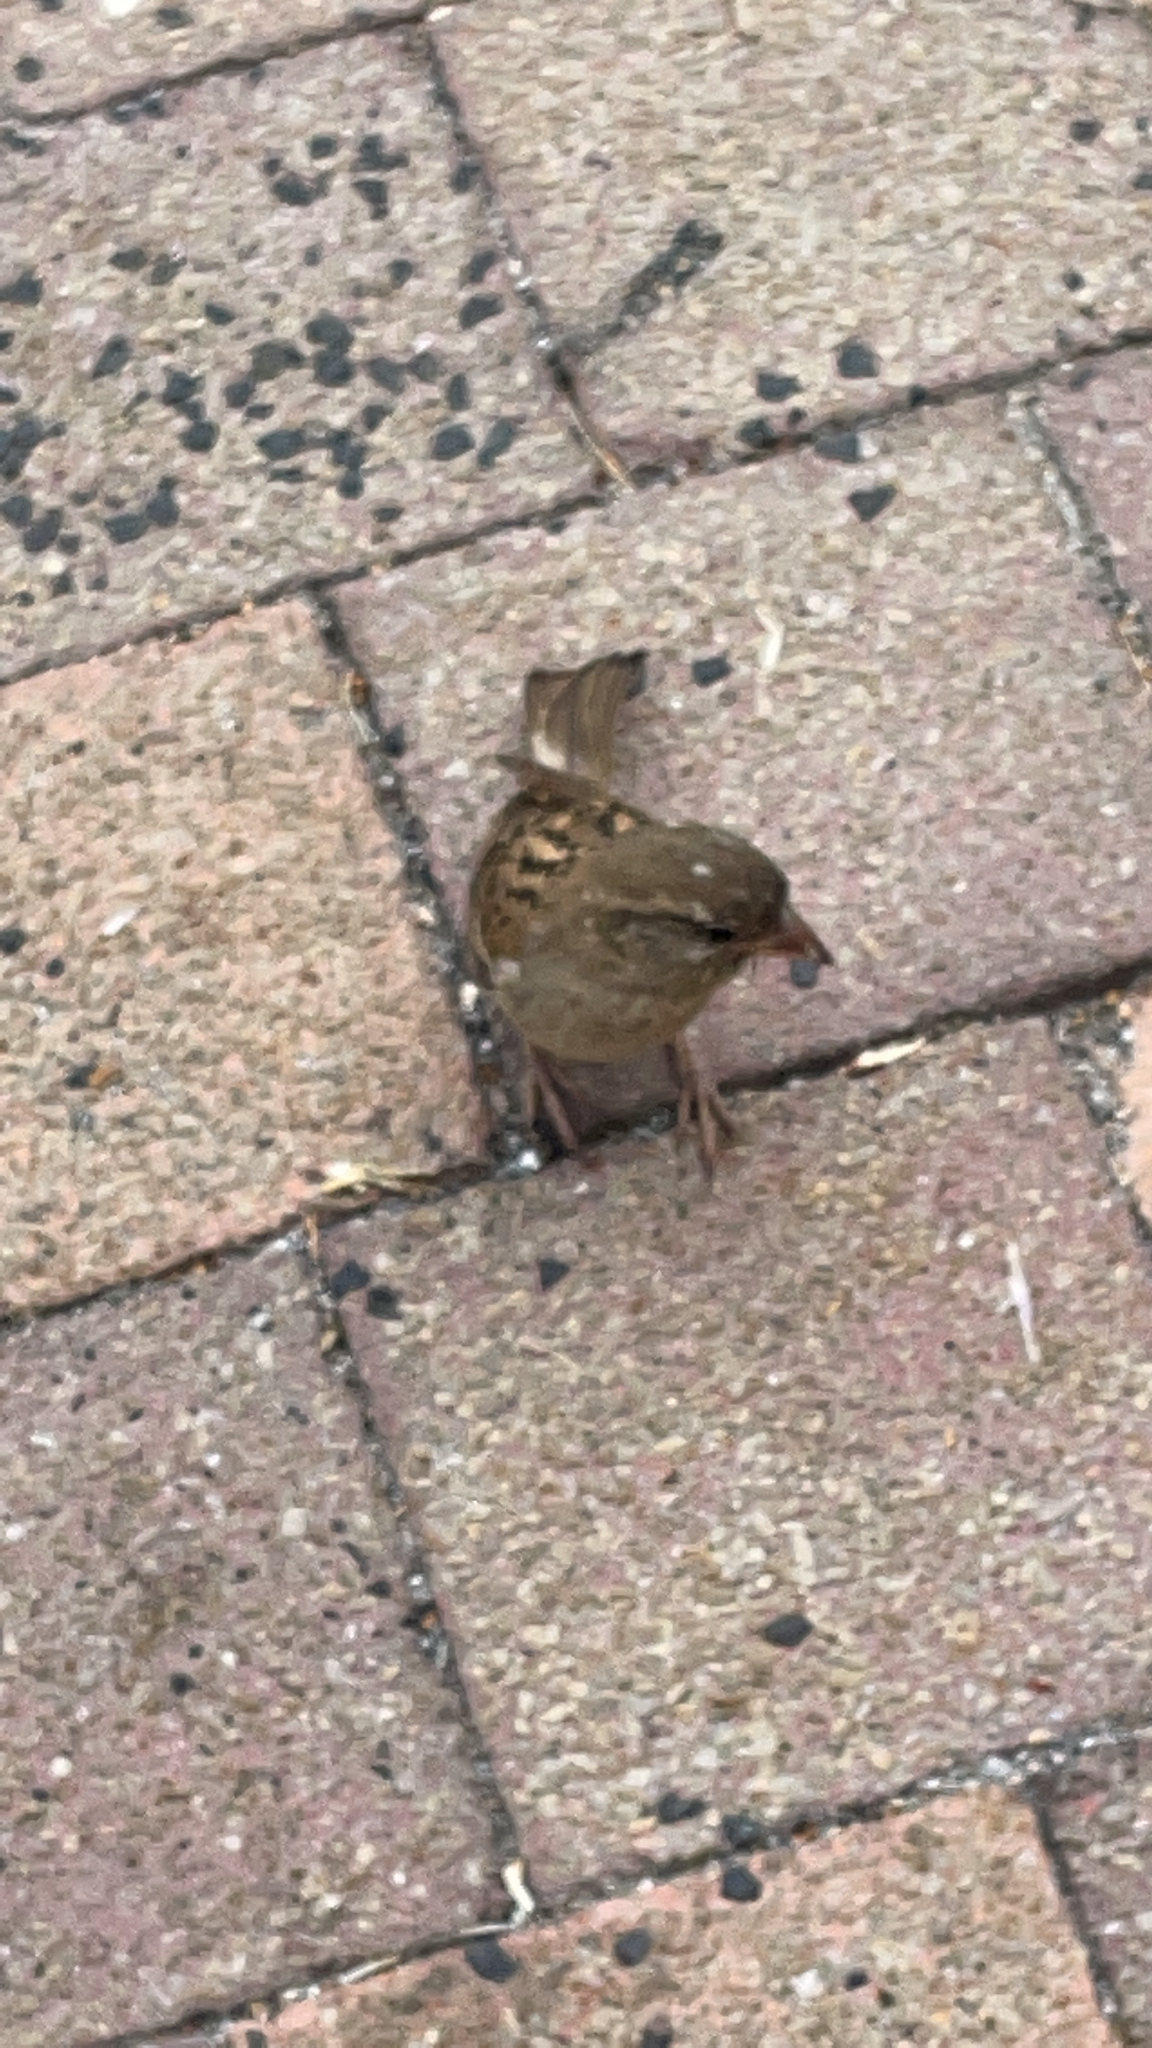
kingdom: Animalia
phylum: Chordata
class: Aves
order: Passeriformes
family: Passeridae
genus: Passer
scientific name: Passer domesticus
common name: House sparrow
